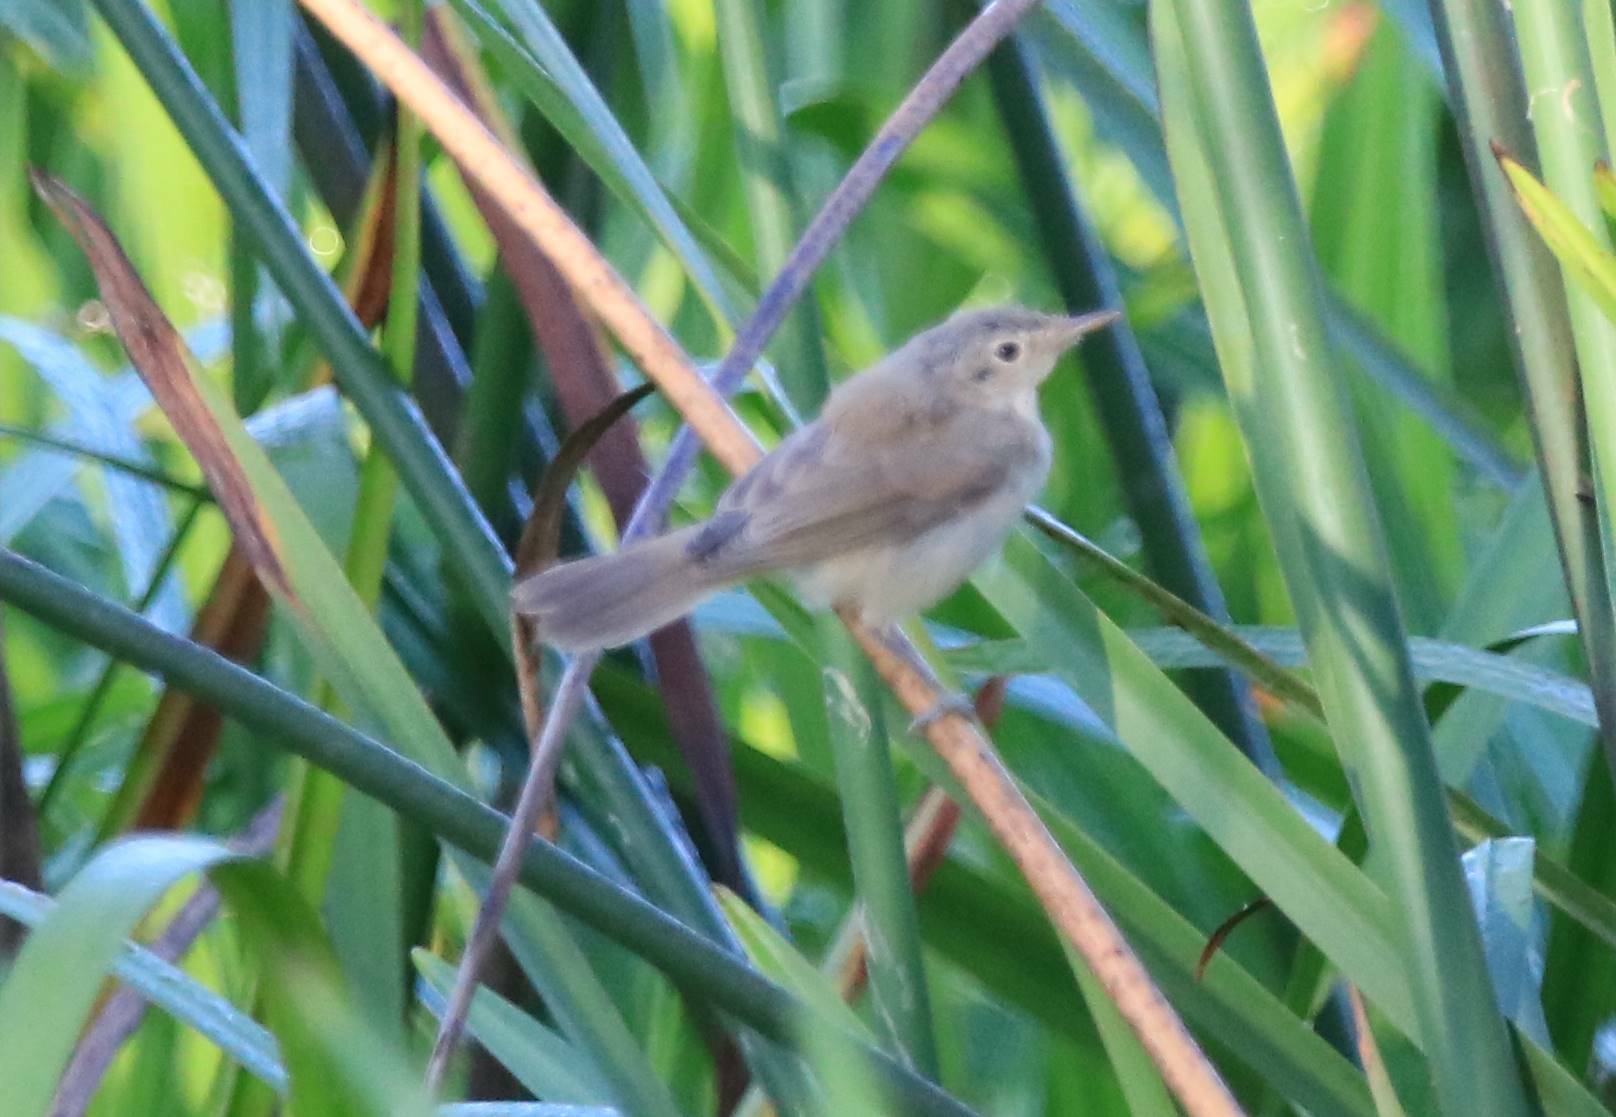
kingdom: Animalia
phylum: Chordata
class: Aves
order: Passeriformes
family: Acrocephalidae
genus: Acrocephalus
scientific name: Acrocephalus scirpaceus
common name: Eurasian reed warbler
